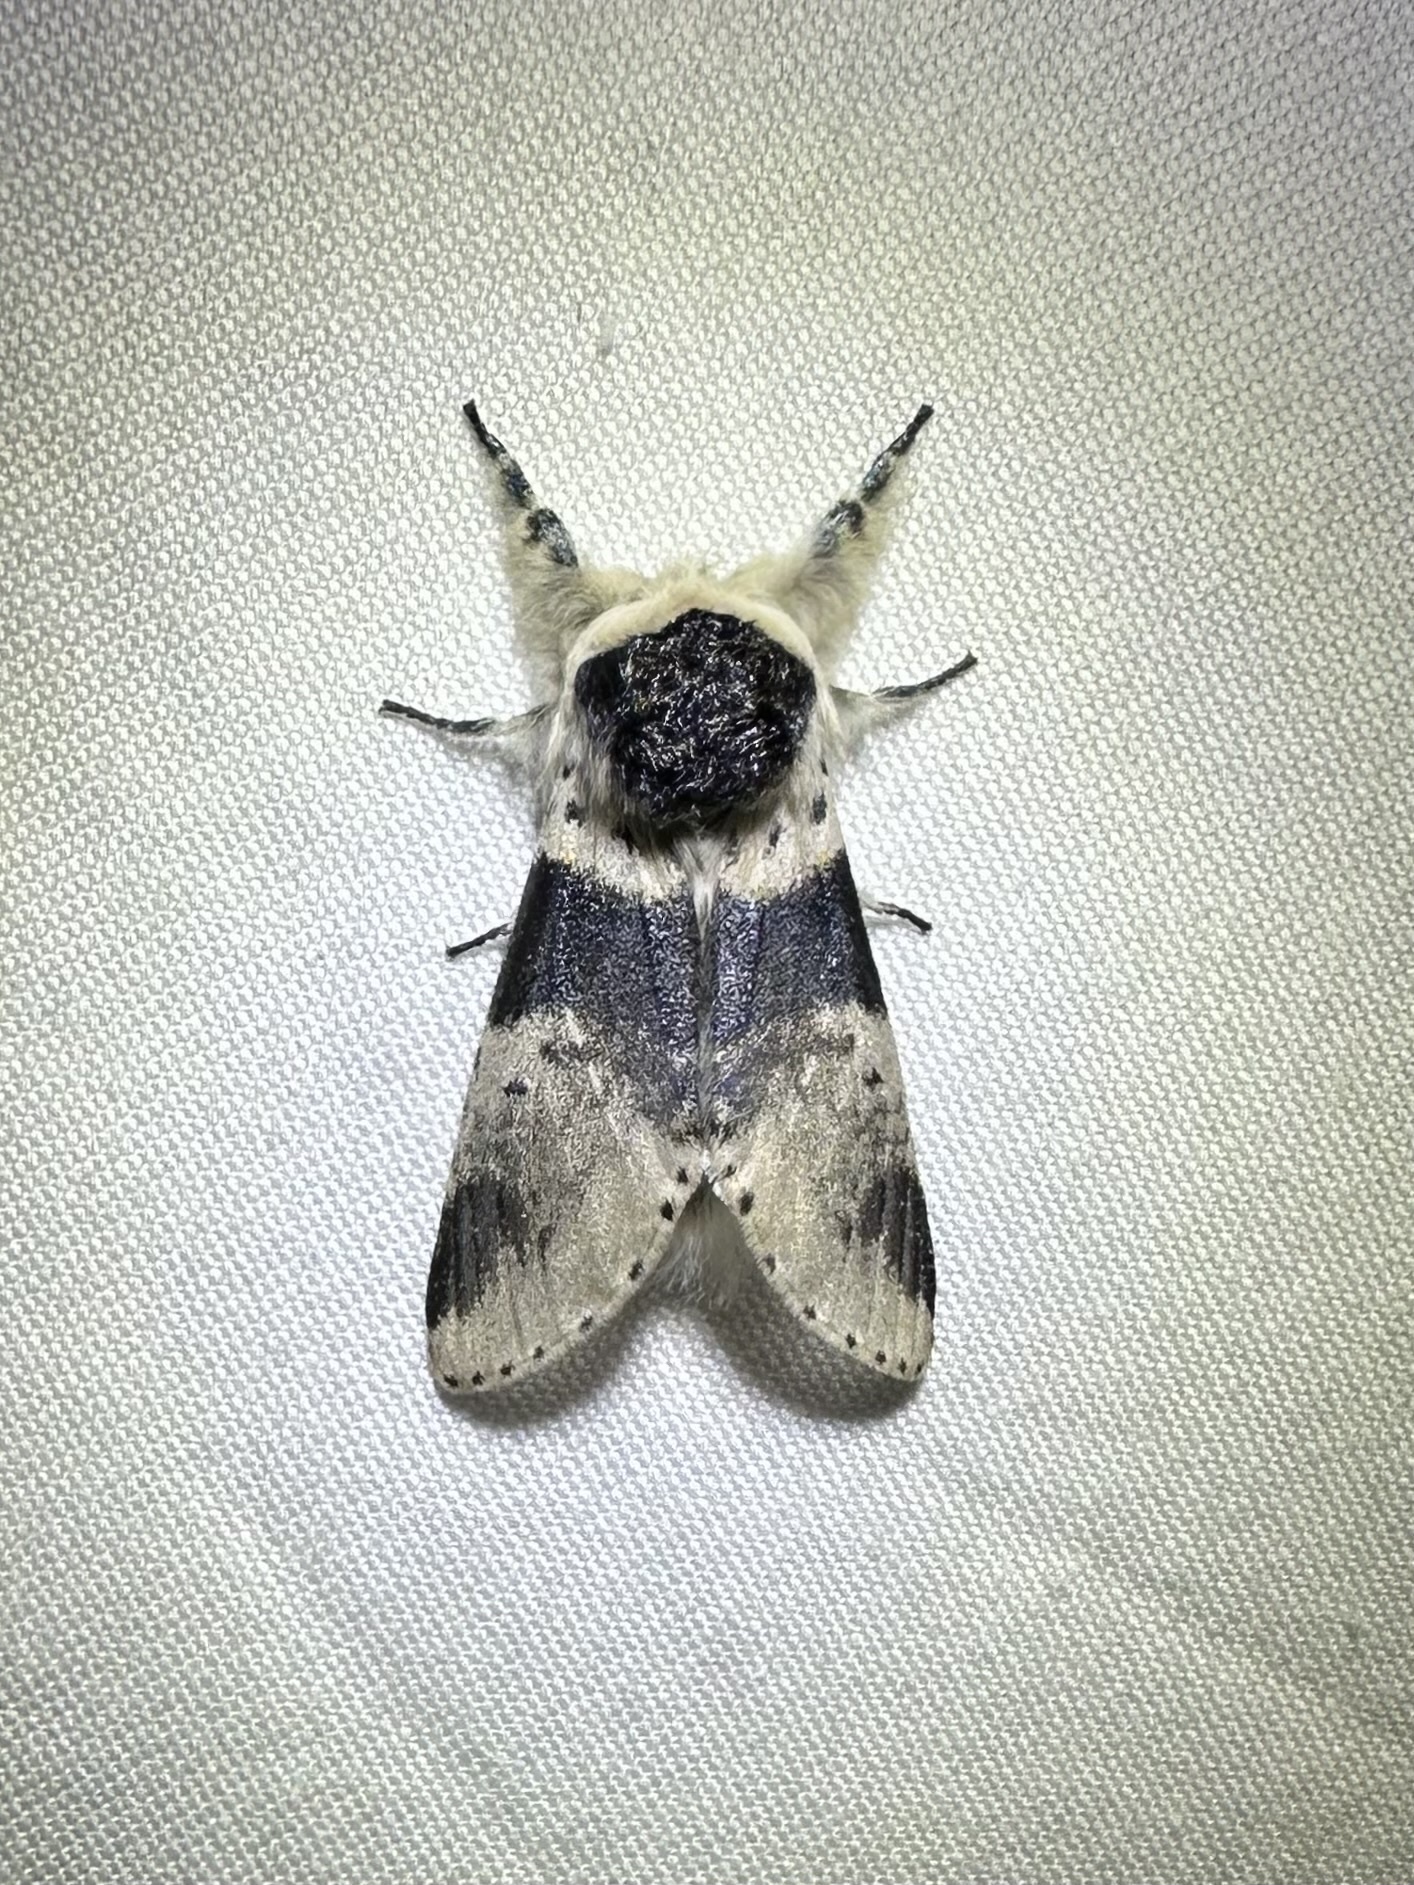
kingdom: Animalia
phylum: Arthropoda
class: Insecta
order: Lepidoptera
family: Notodontidae
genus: Furcula
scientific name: Furcula modesta
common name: Modest furcula moth
